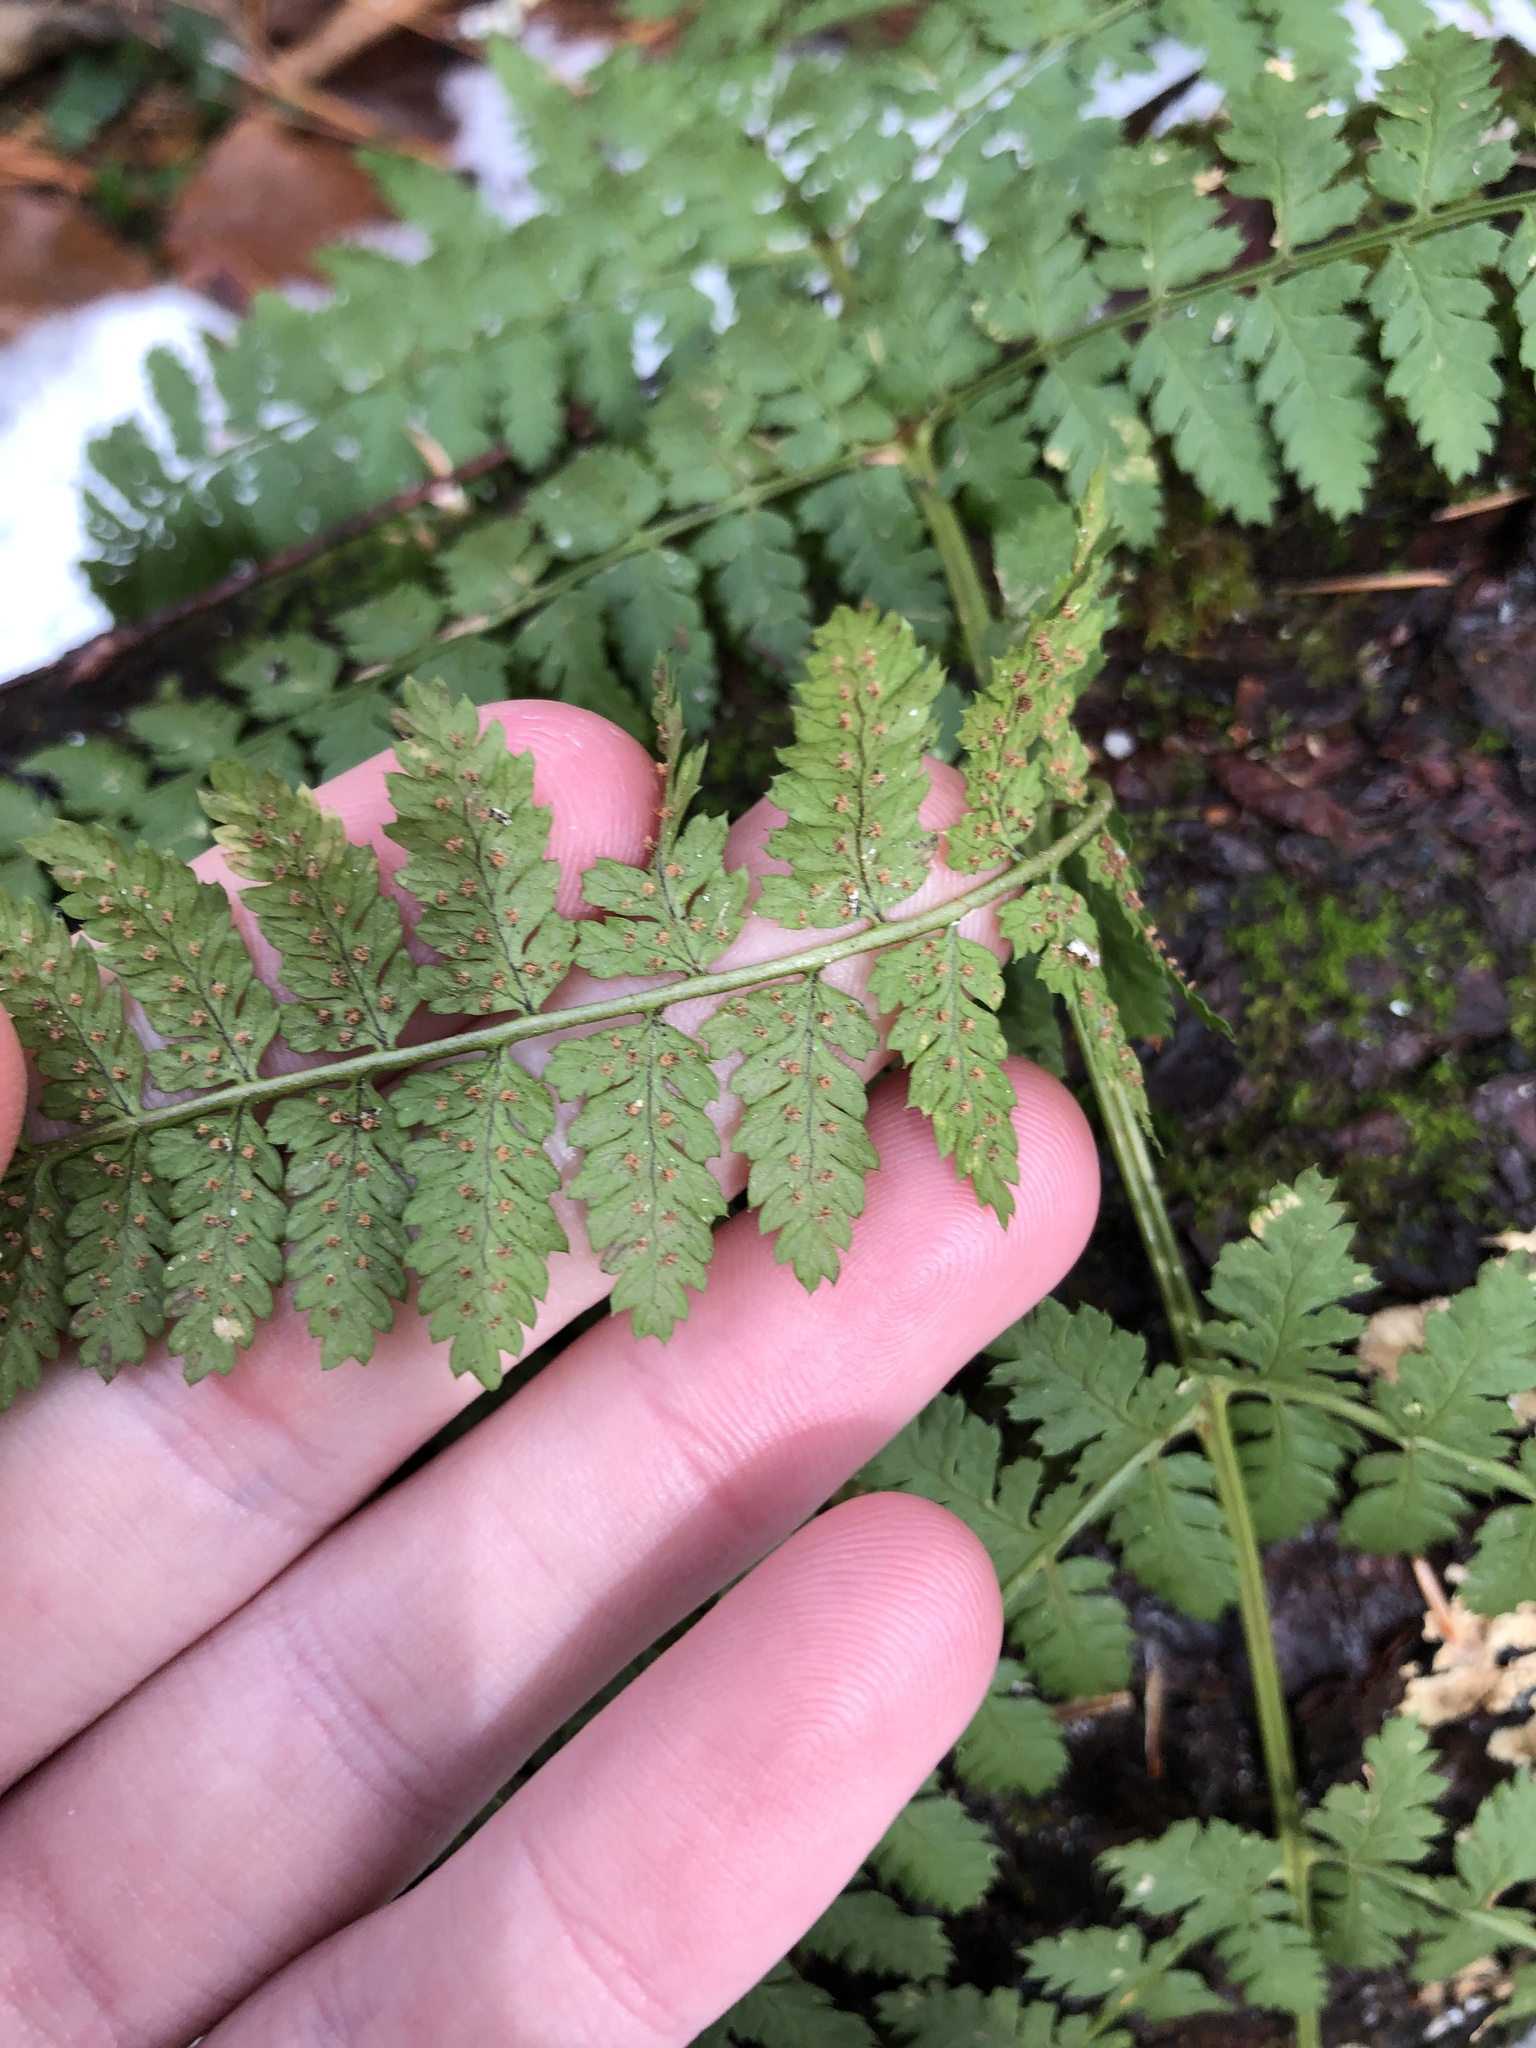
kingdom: Plantae
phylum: Tracheophyta
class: Polypodiopsida
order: Polypodiales
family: Dryopteridaceae
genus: Dryopteris
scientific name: Dryopteris intermedia
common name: Evergreen wood fern
